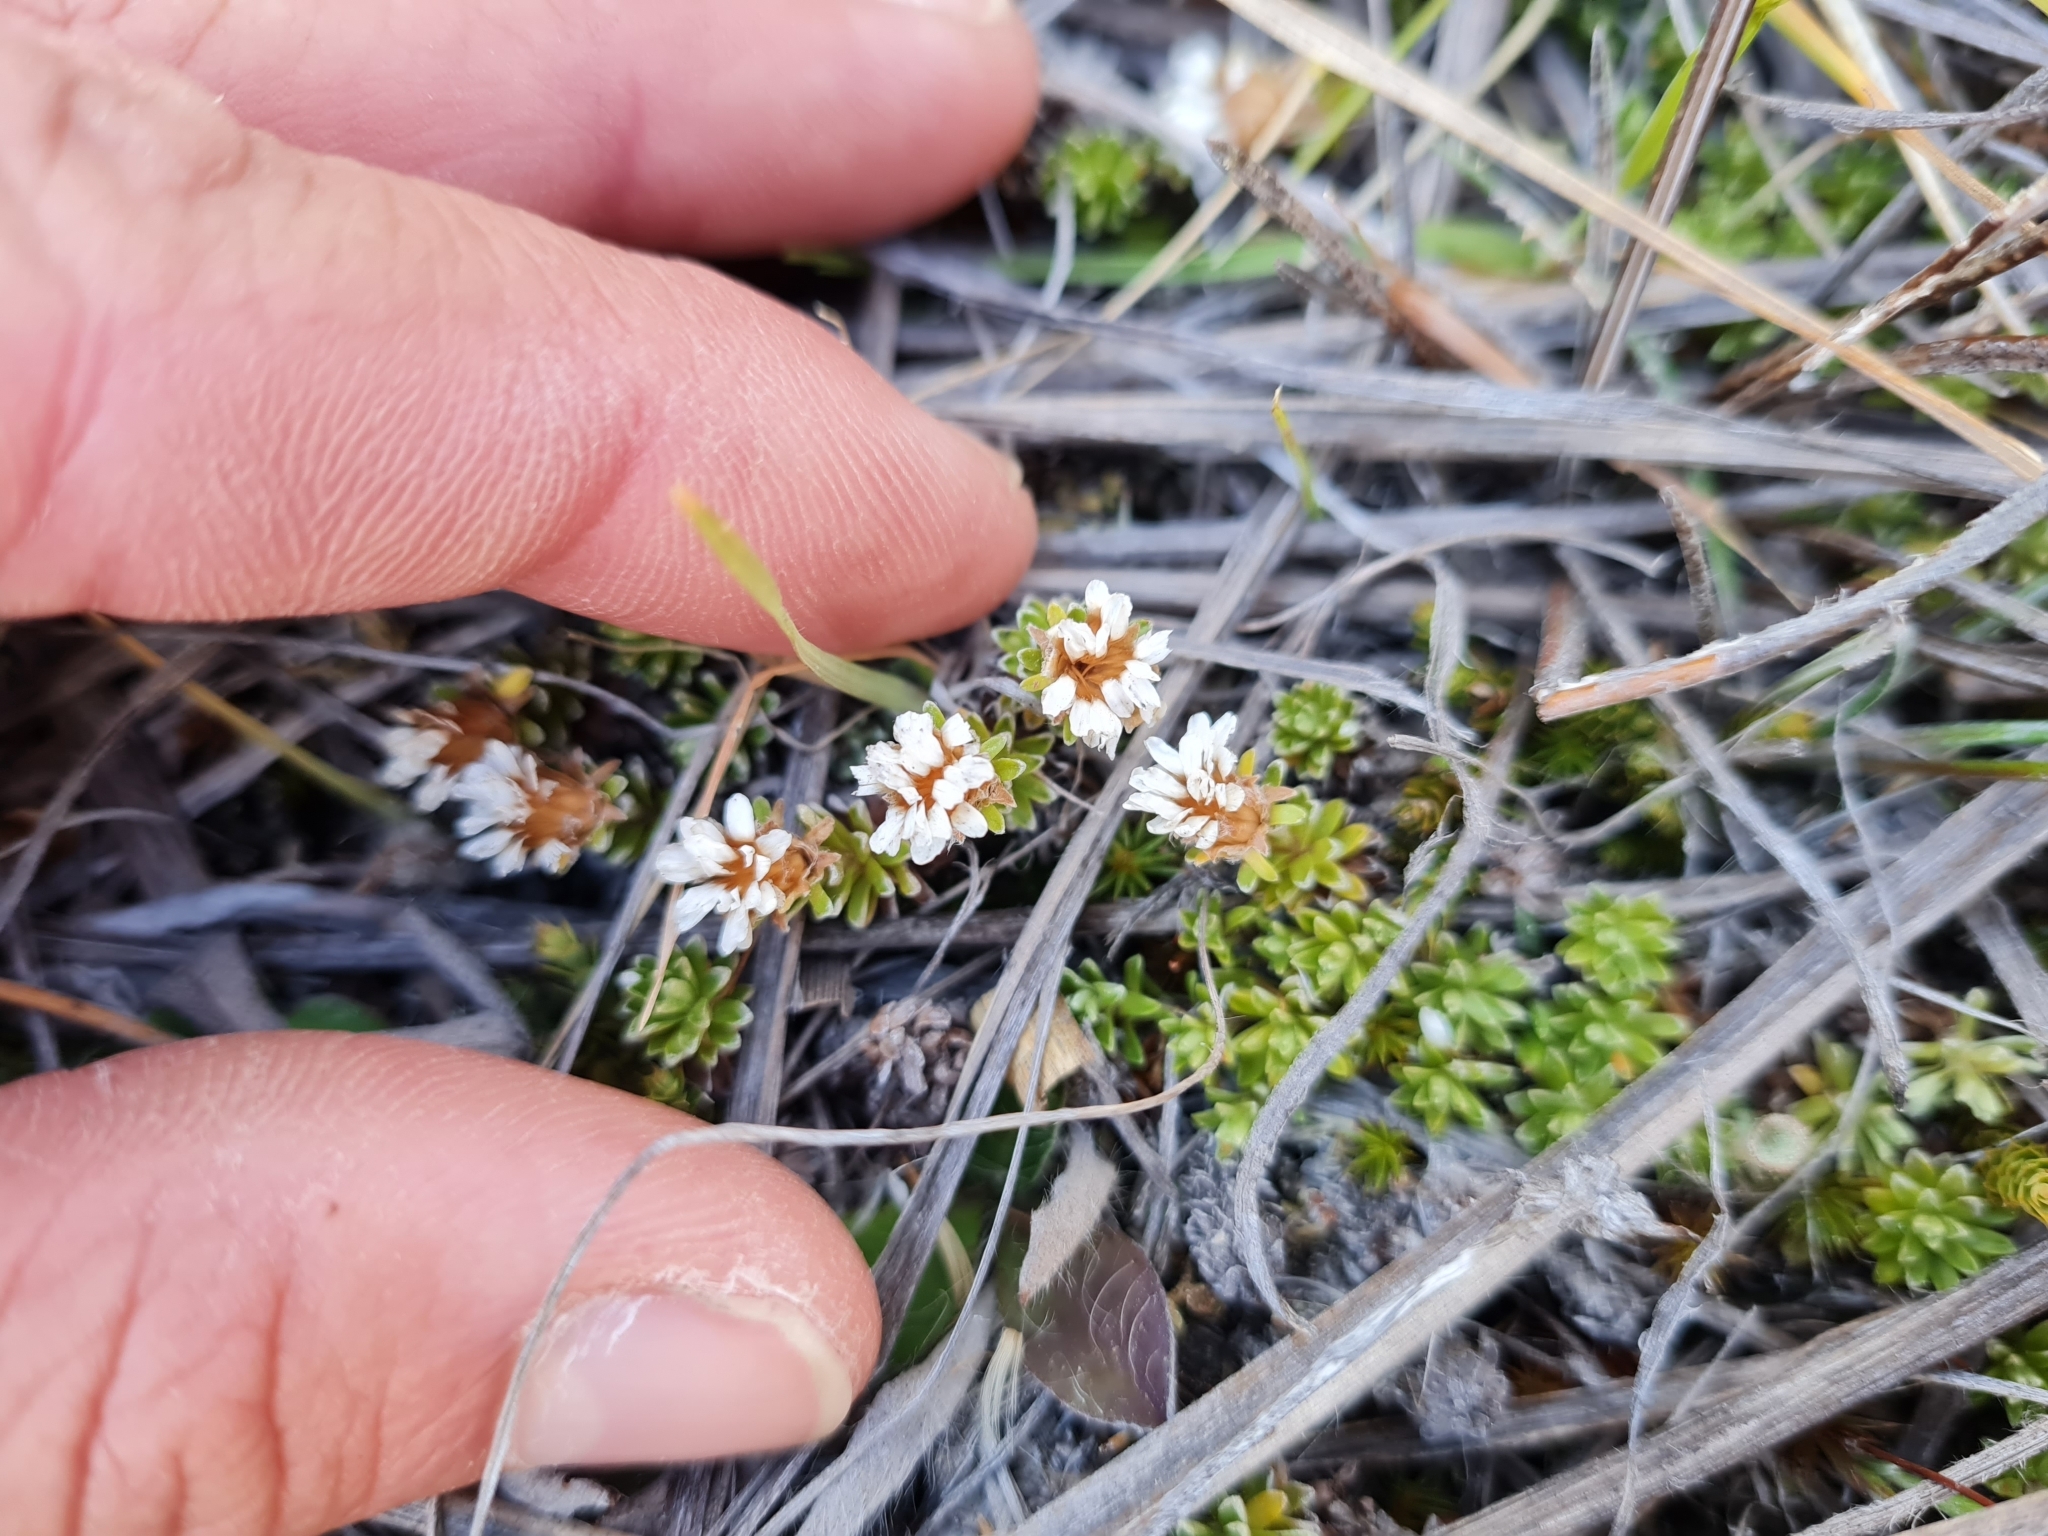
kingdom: Plantae
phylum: Tracheophyta
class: Magnoliopsida
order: Asterales
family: Asteraceae
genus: Raoulia
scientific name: Raoulia subsericea
